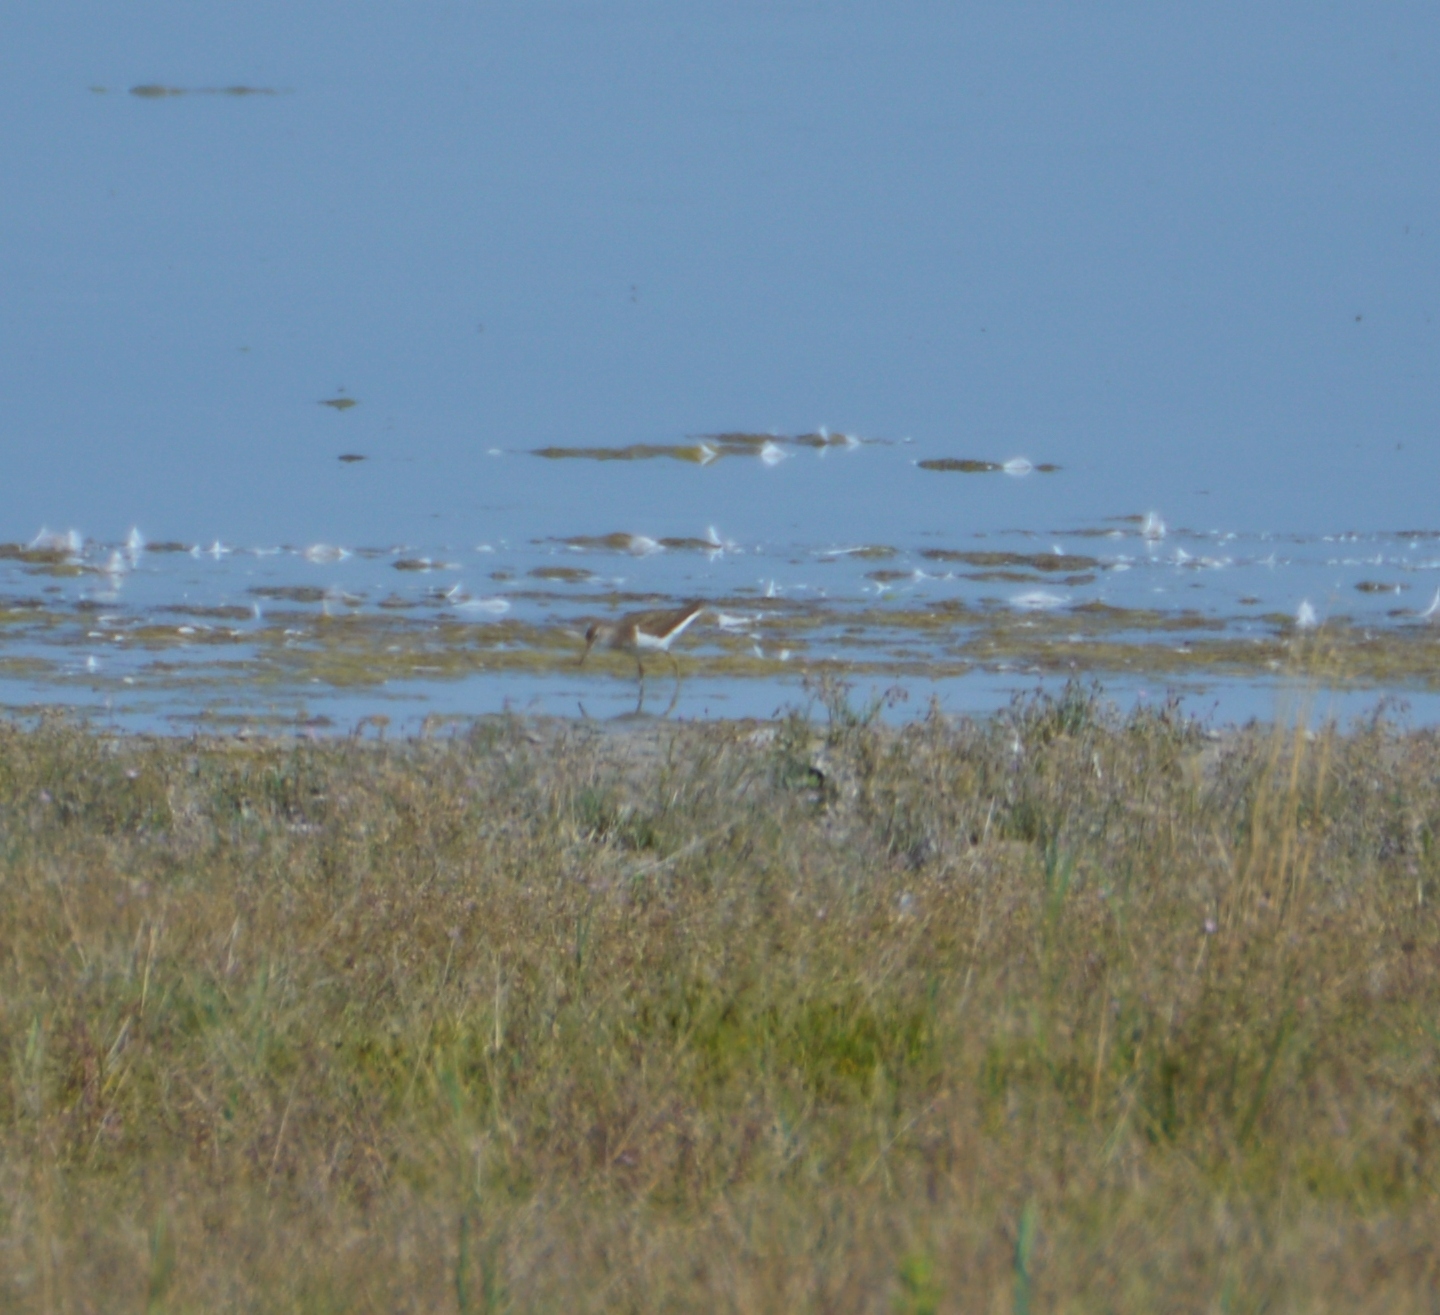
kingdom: Animalia
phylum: Chordata
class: Aves
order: Charadriiformes
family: Scolopacidae
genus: Actitis
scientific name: Actitis hypoleucos
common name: Common sandpiper
